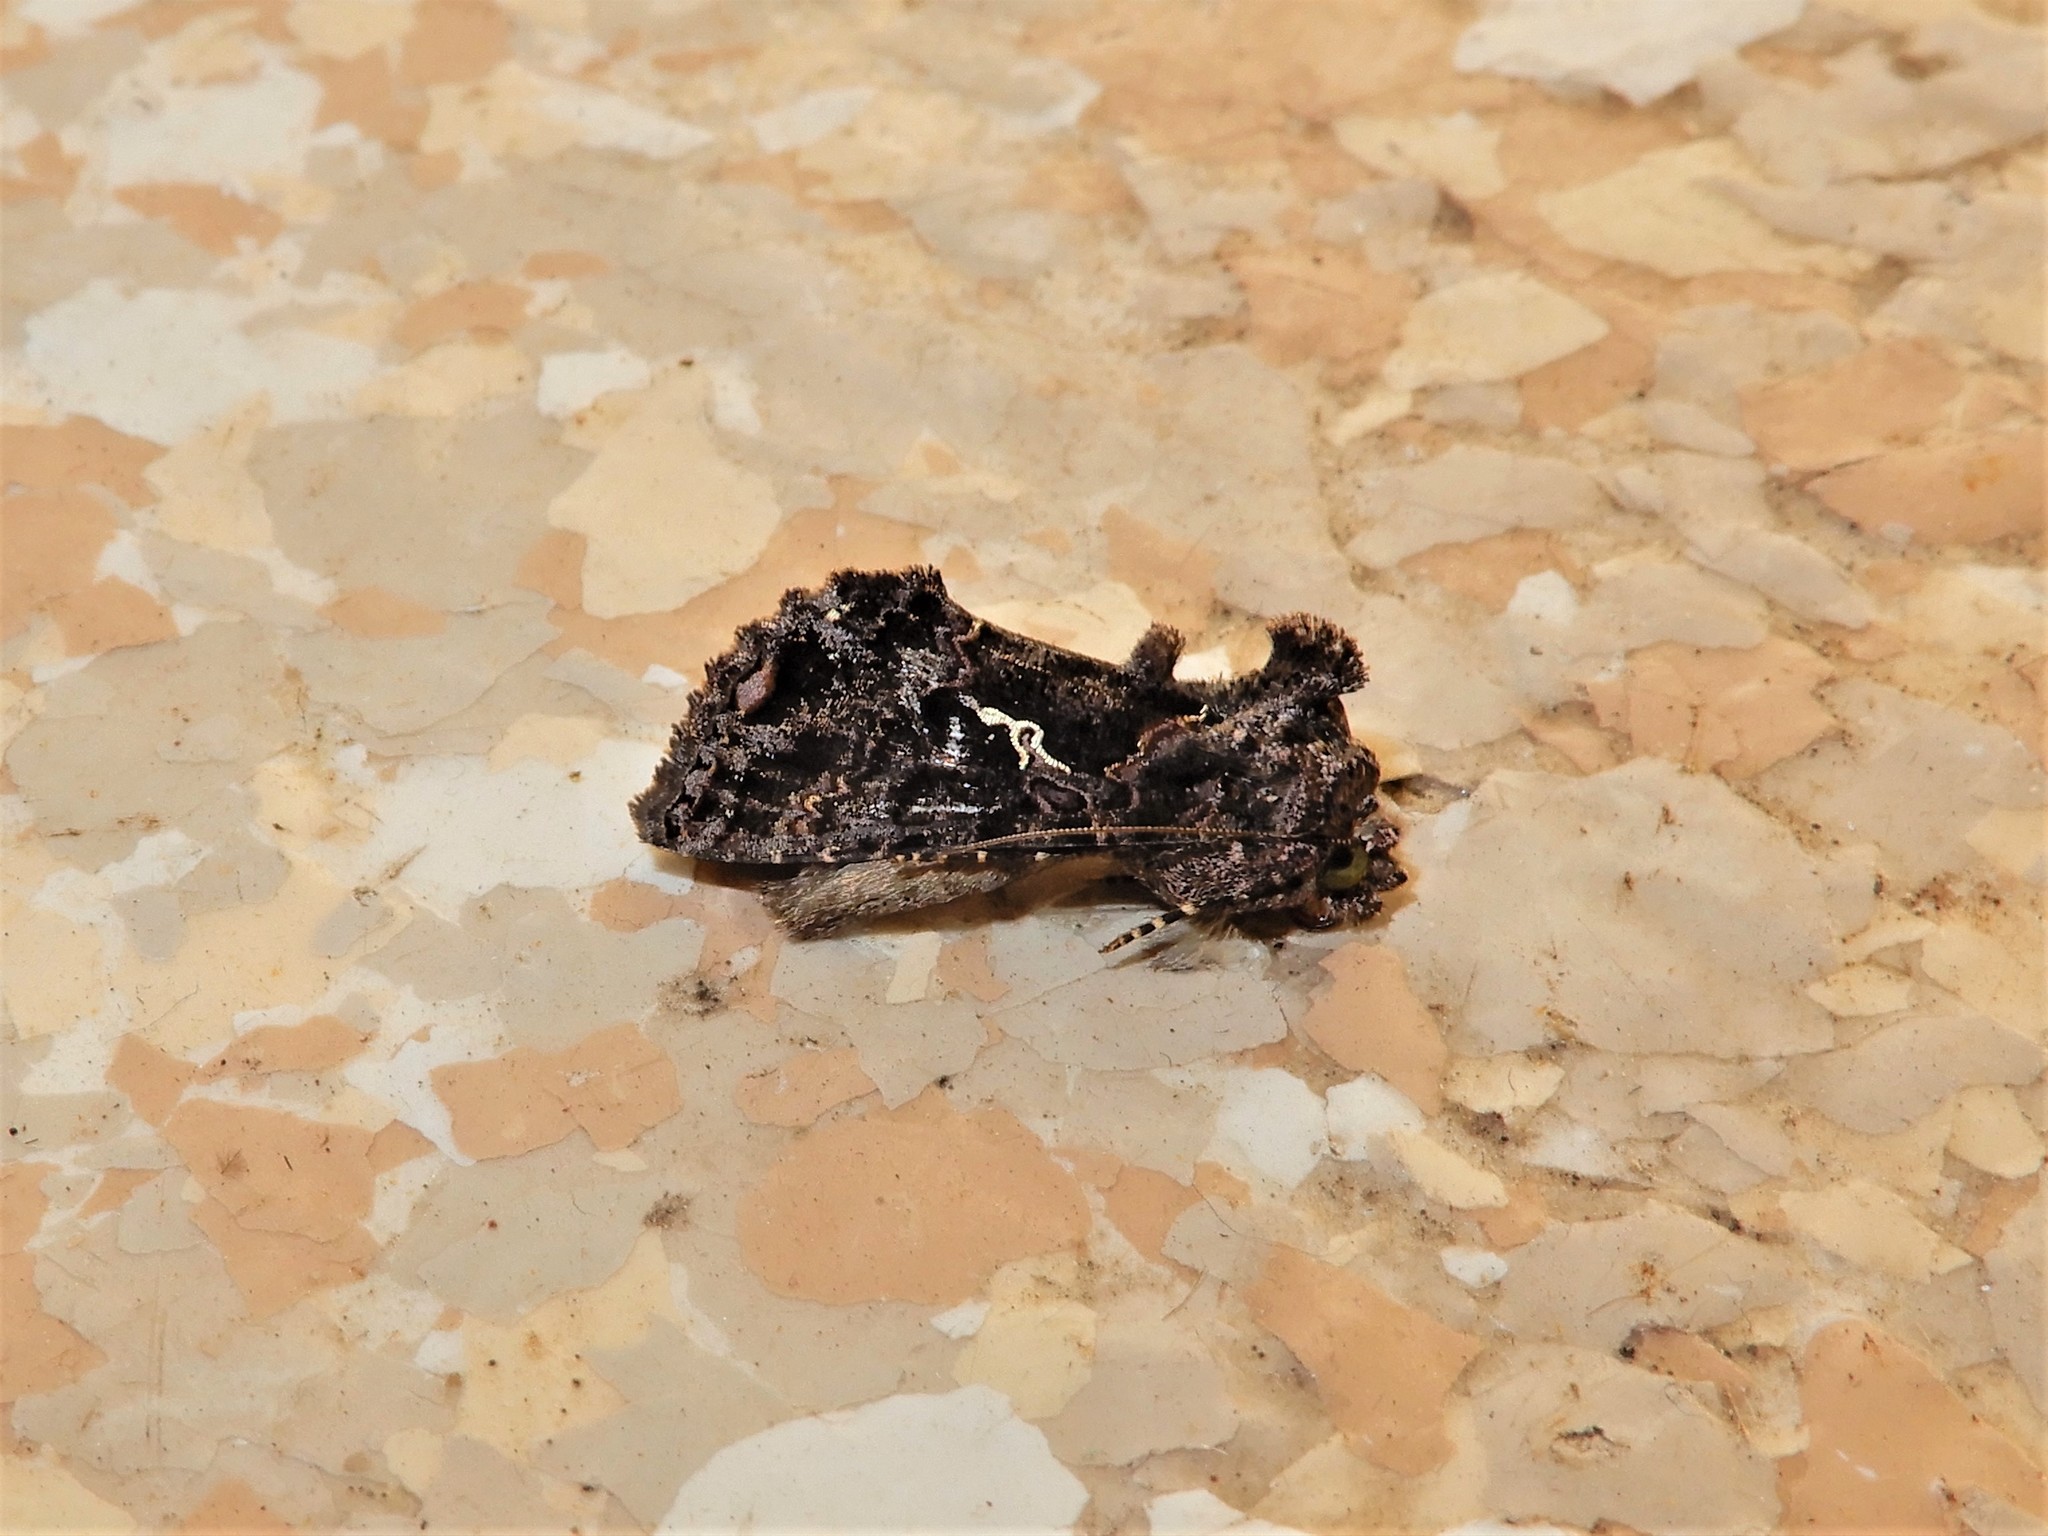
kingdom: Animalia
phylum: Arthropoda
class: Insecta
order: Lepidoptera
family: Noctuidae
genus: Ctenoplusia
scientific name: Ctenoplusia limbirena
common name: Scar bank gem
